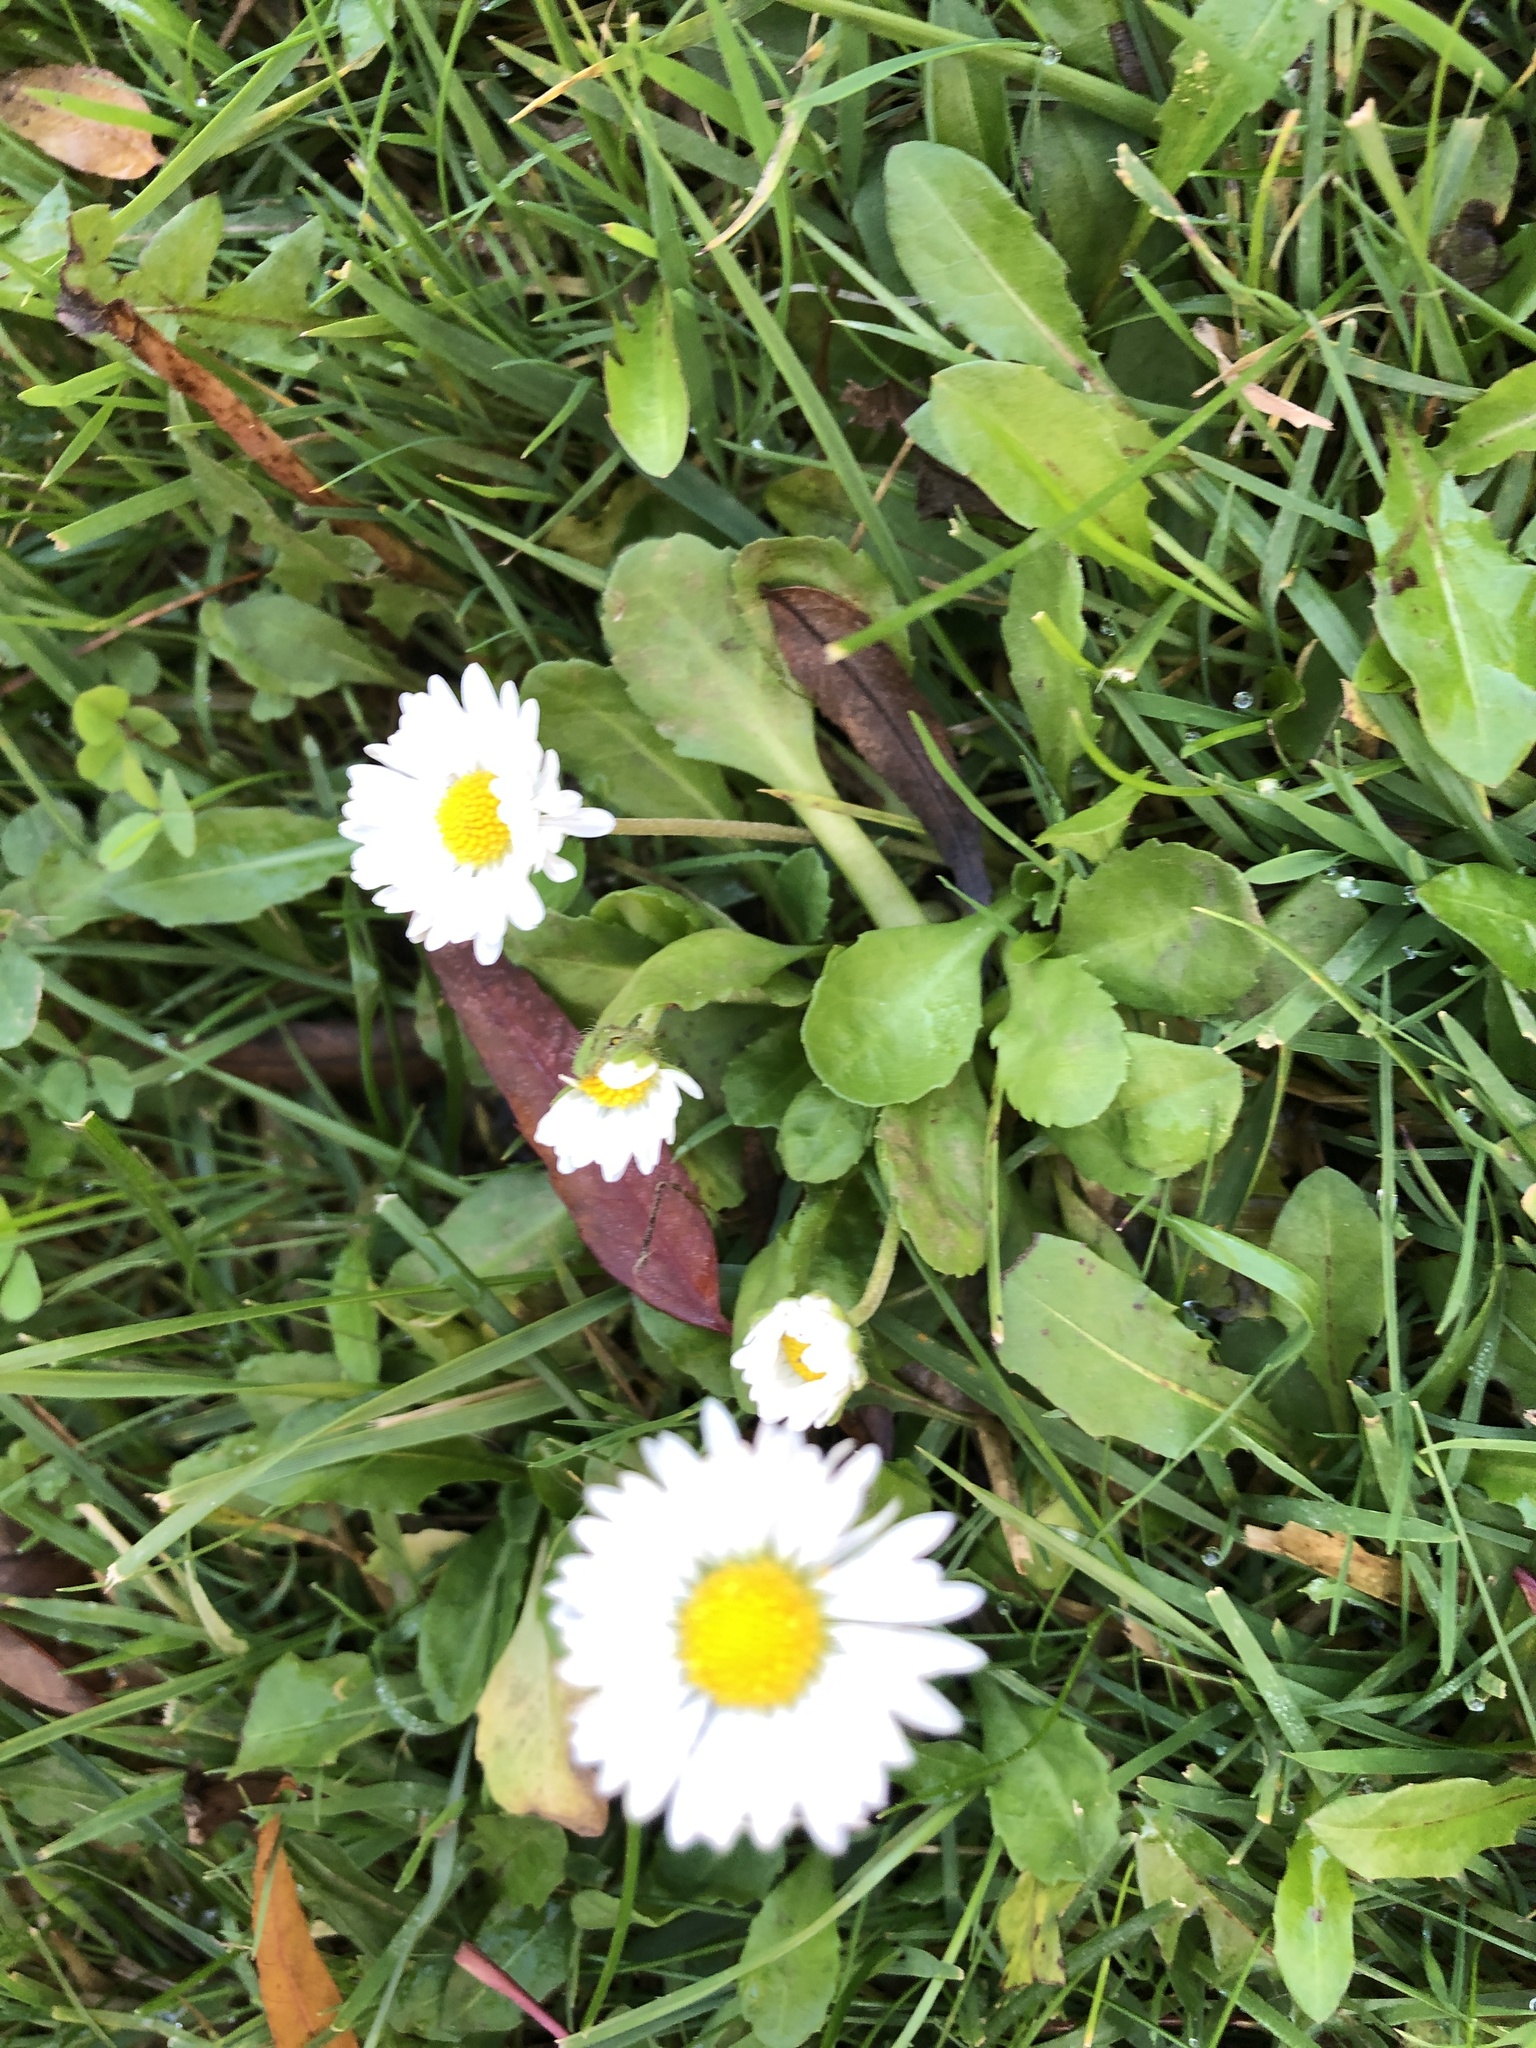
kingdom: Plantae
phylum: Tracheophyta
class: Magnoliopsida
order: Asterales
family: Asteraceae
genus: Bellis
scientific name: Bellis perennis
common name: Lawndaisy
